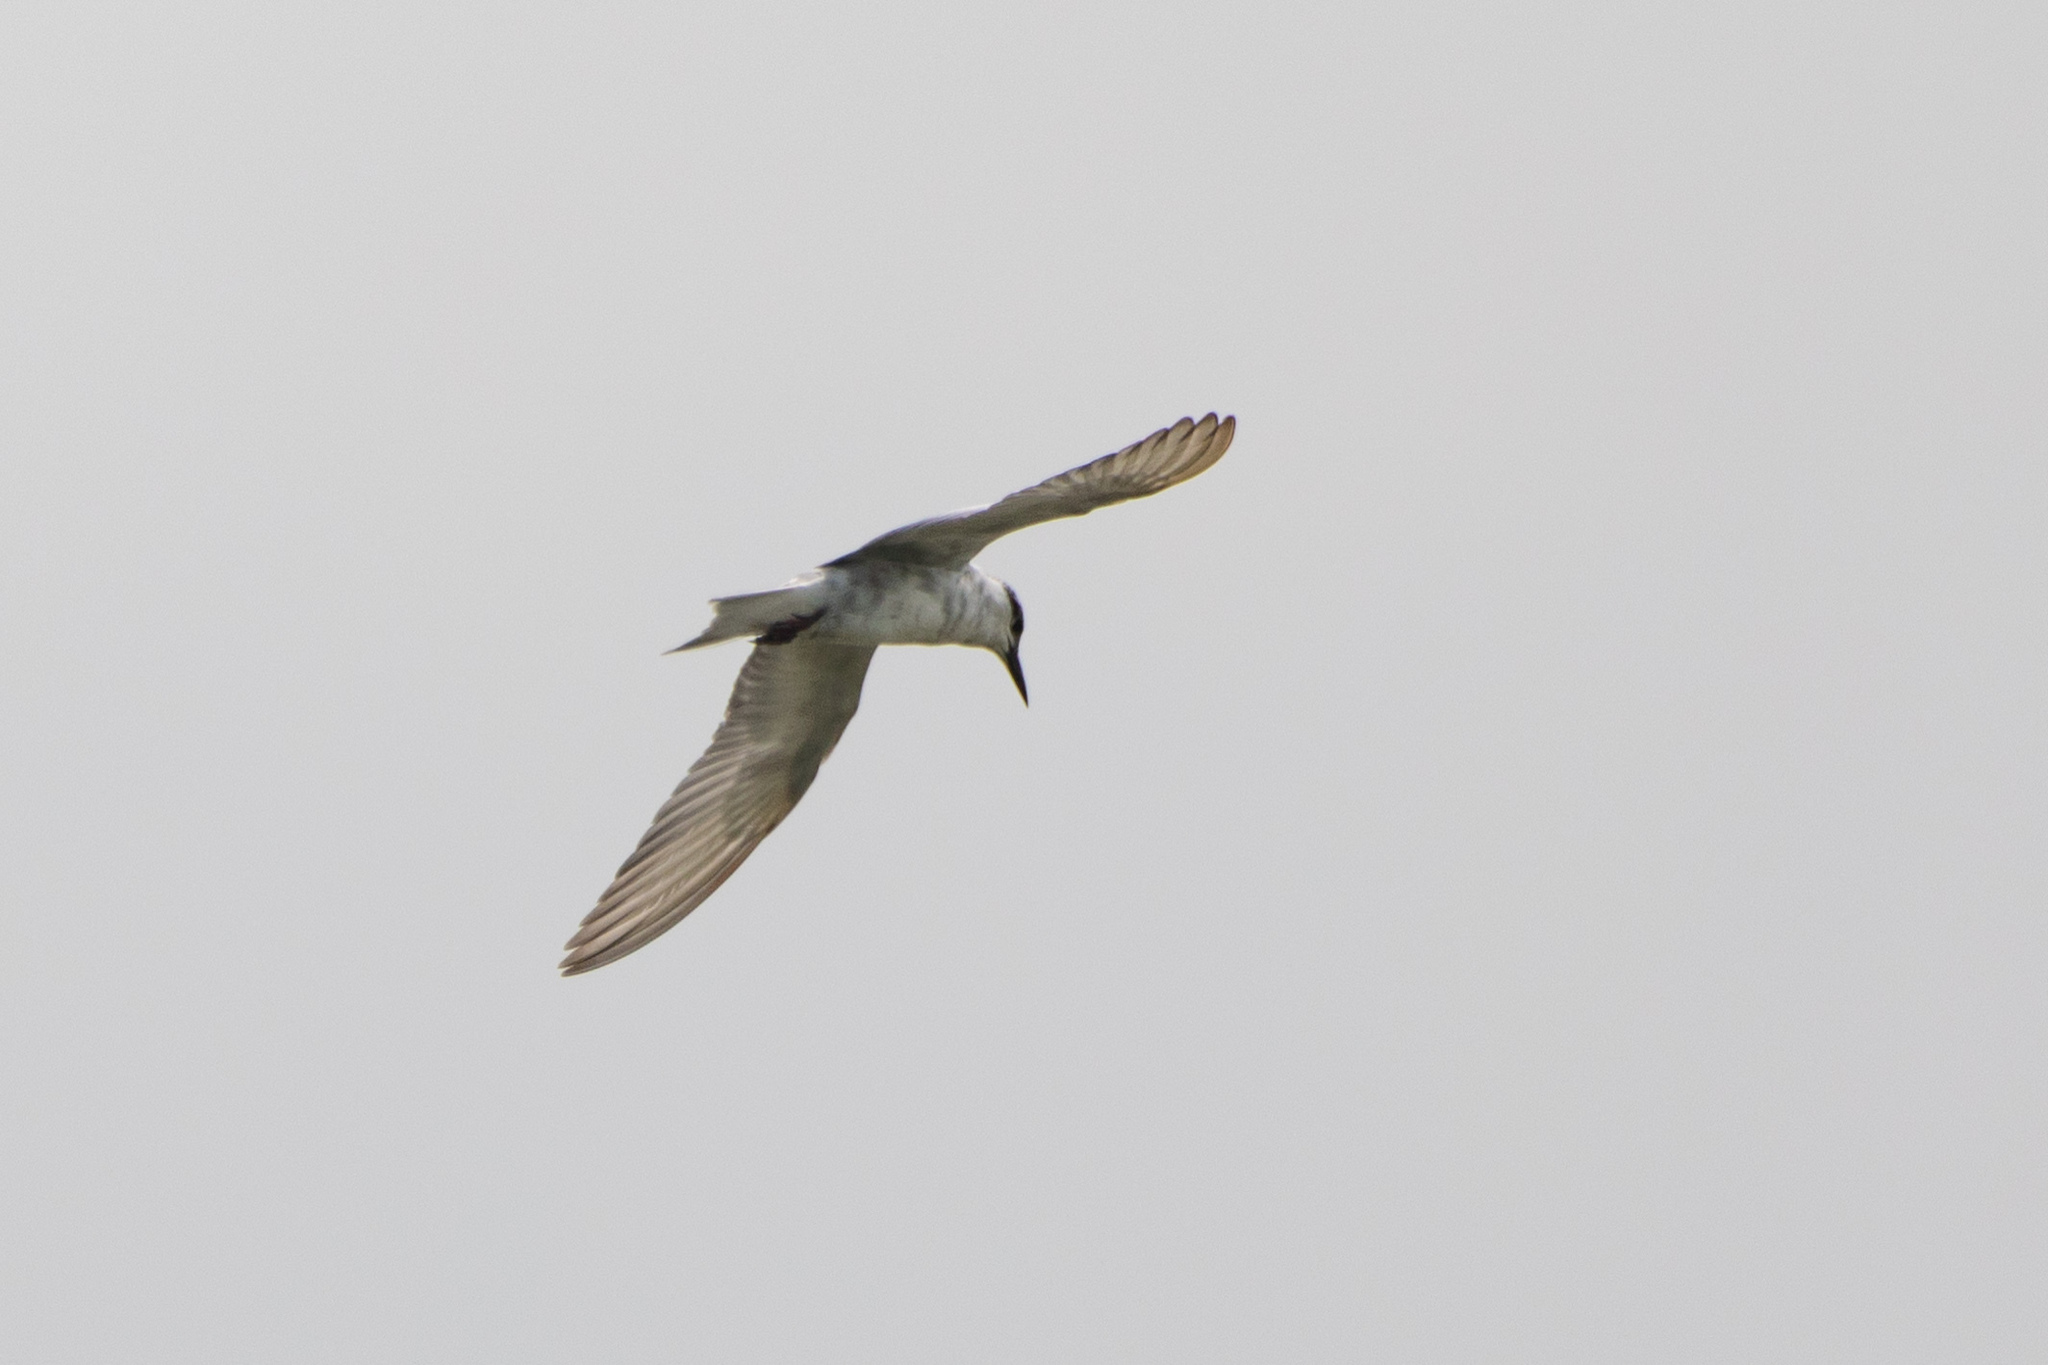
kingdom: Animalia
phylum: Chordata
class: Aves
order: Charadriiformes
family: Laridae
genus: Chlidonias
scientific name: Chlidonias hybrida
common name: Whiskered tern
